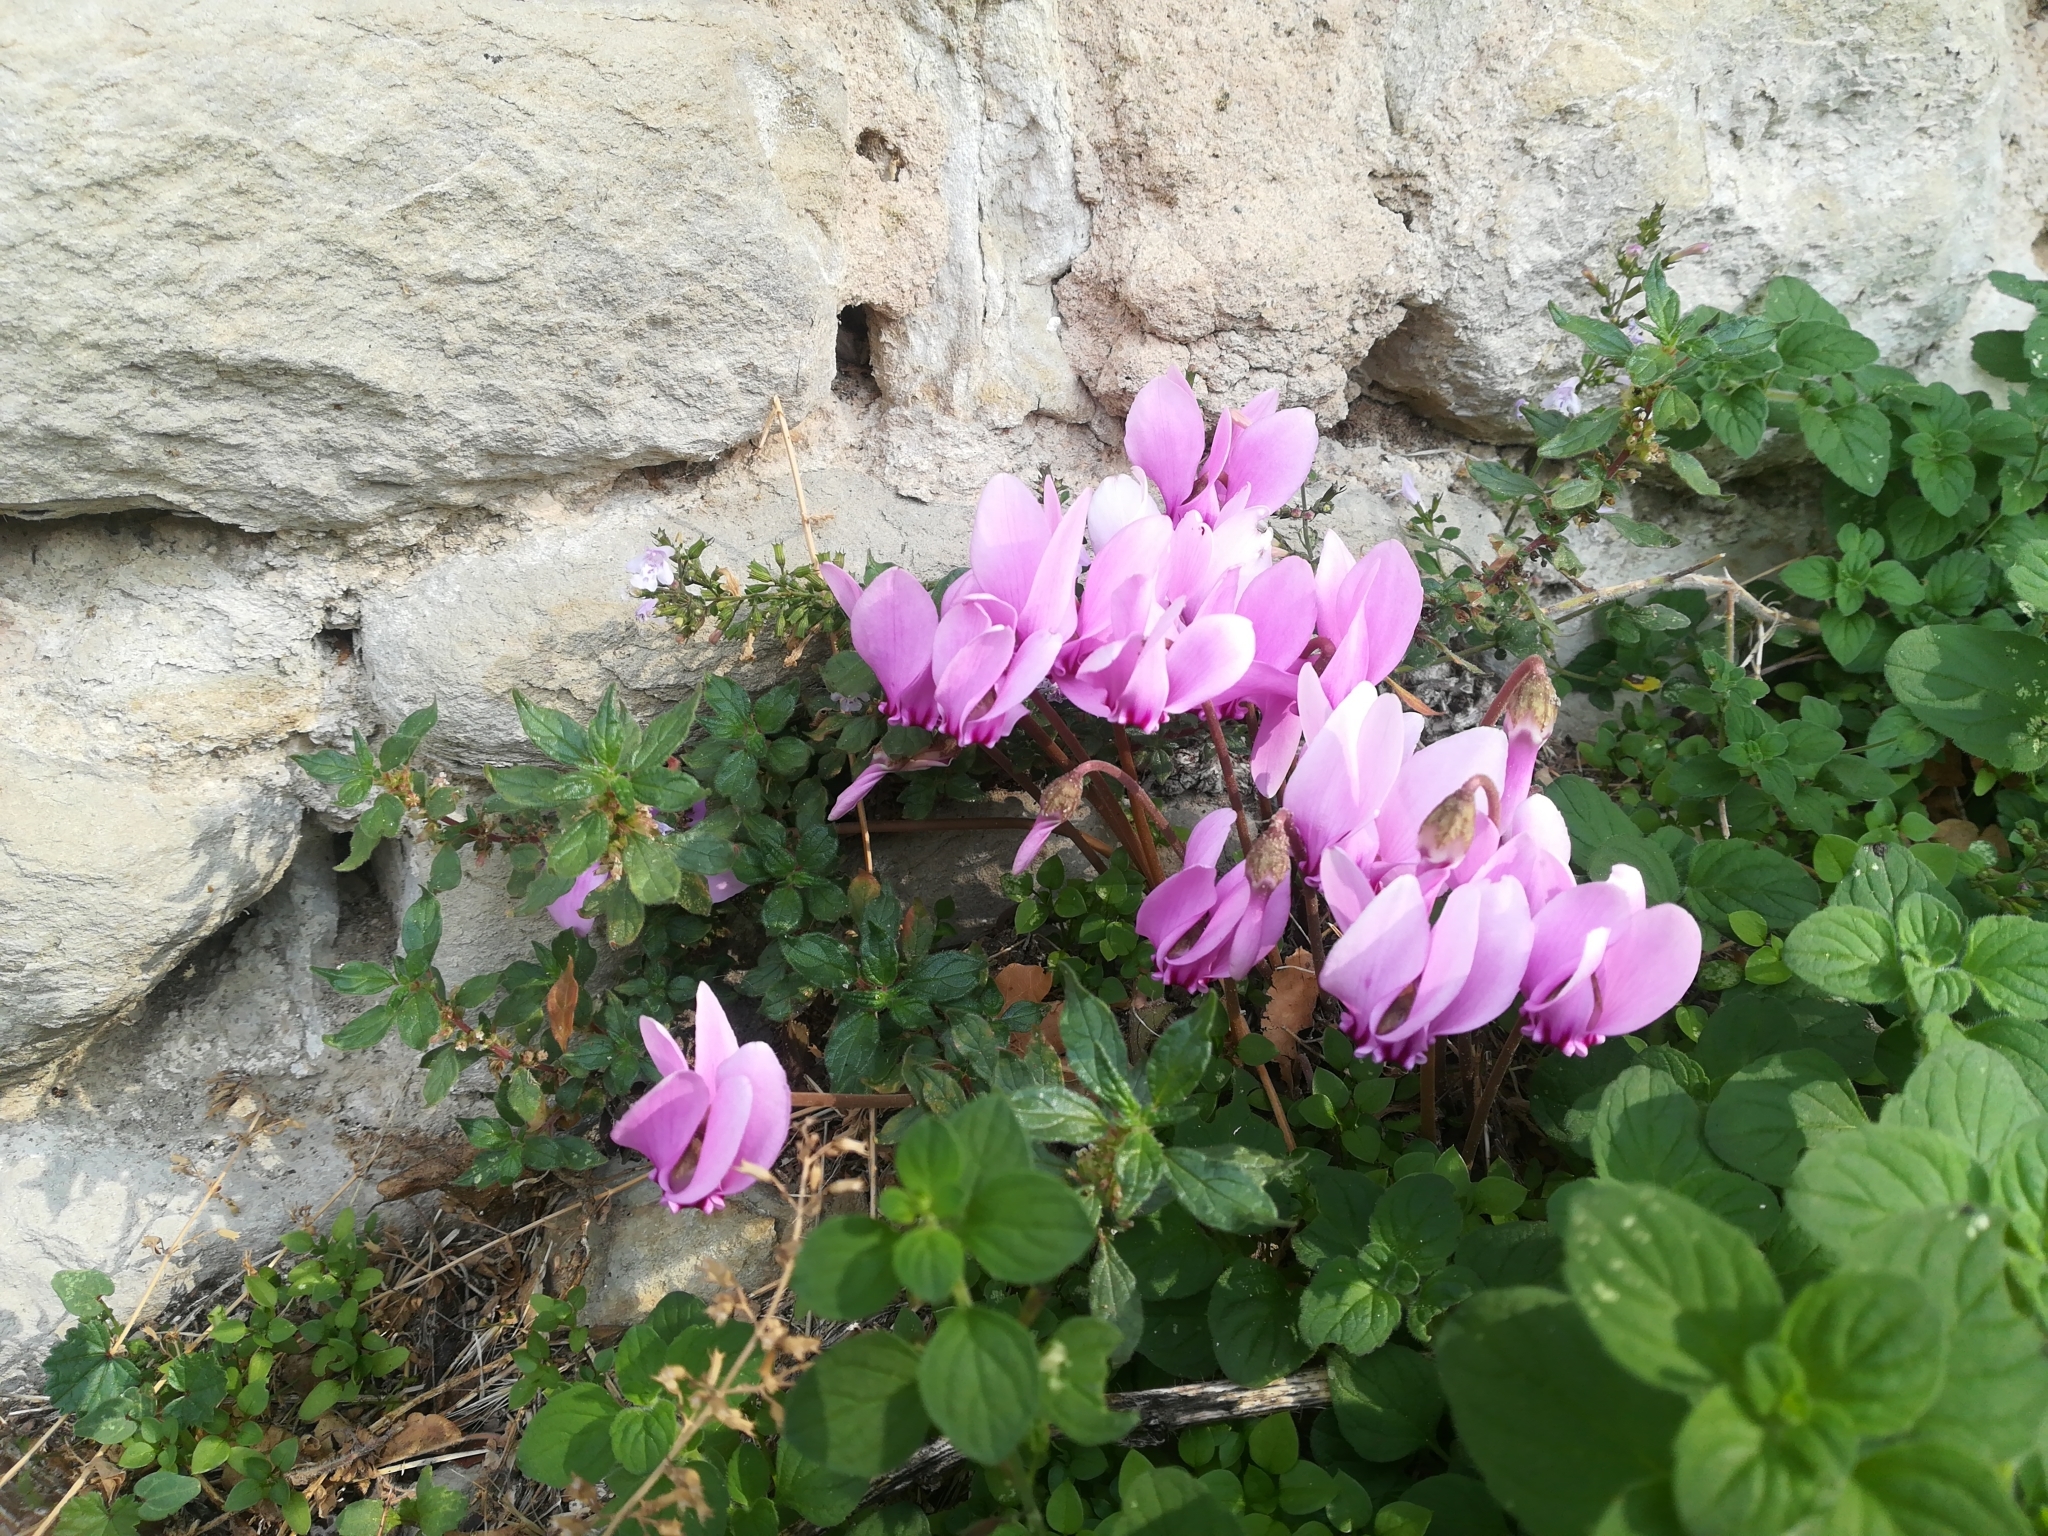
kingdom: Plantae
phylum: Tracheophyta
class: Magnoliopsida
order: Ericales
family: Primulaceae
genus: Cyclamen
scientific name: Cyclamen hederifolium
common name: Sowbread
